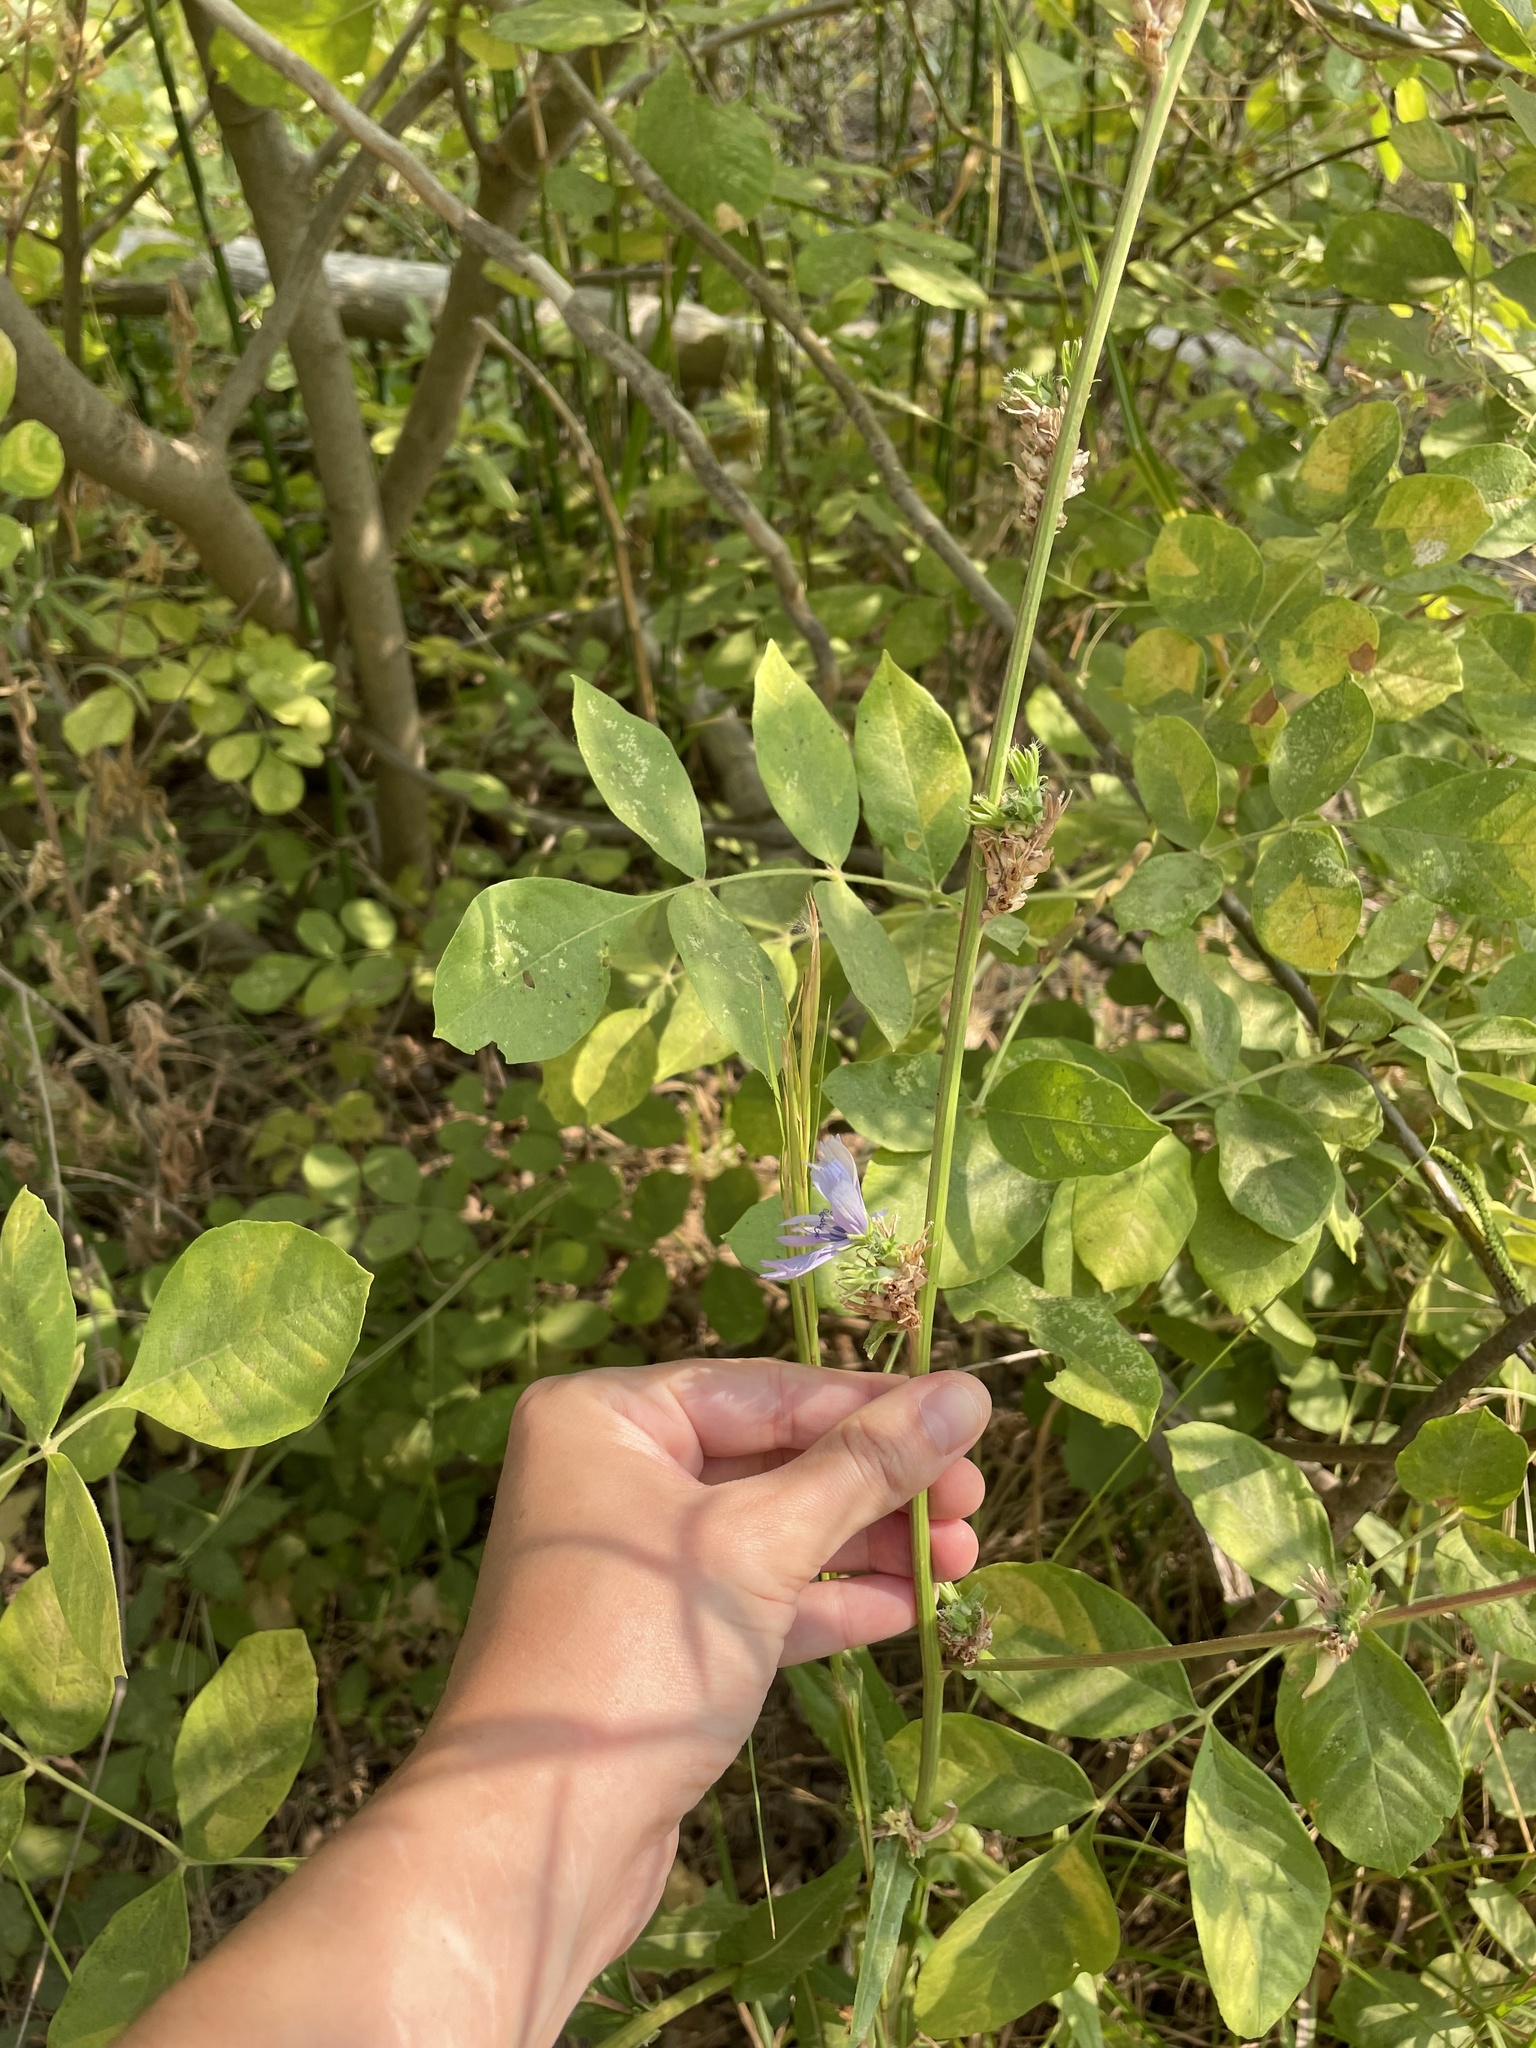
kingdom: Plantae
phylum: Tracheophyta
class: Magnoliopsida
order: Asterales
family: Asteraceae
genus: Cichorium
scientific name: Cichorium intybus
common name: Chicory
